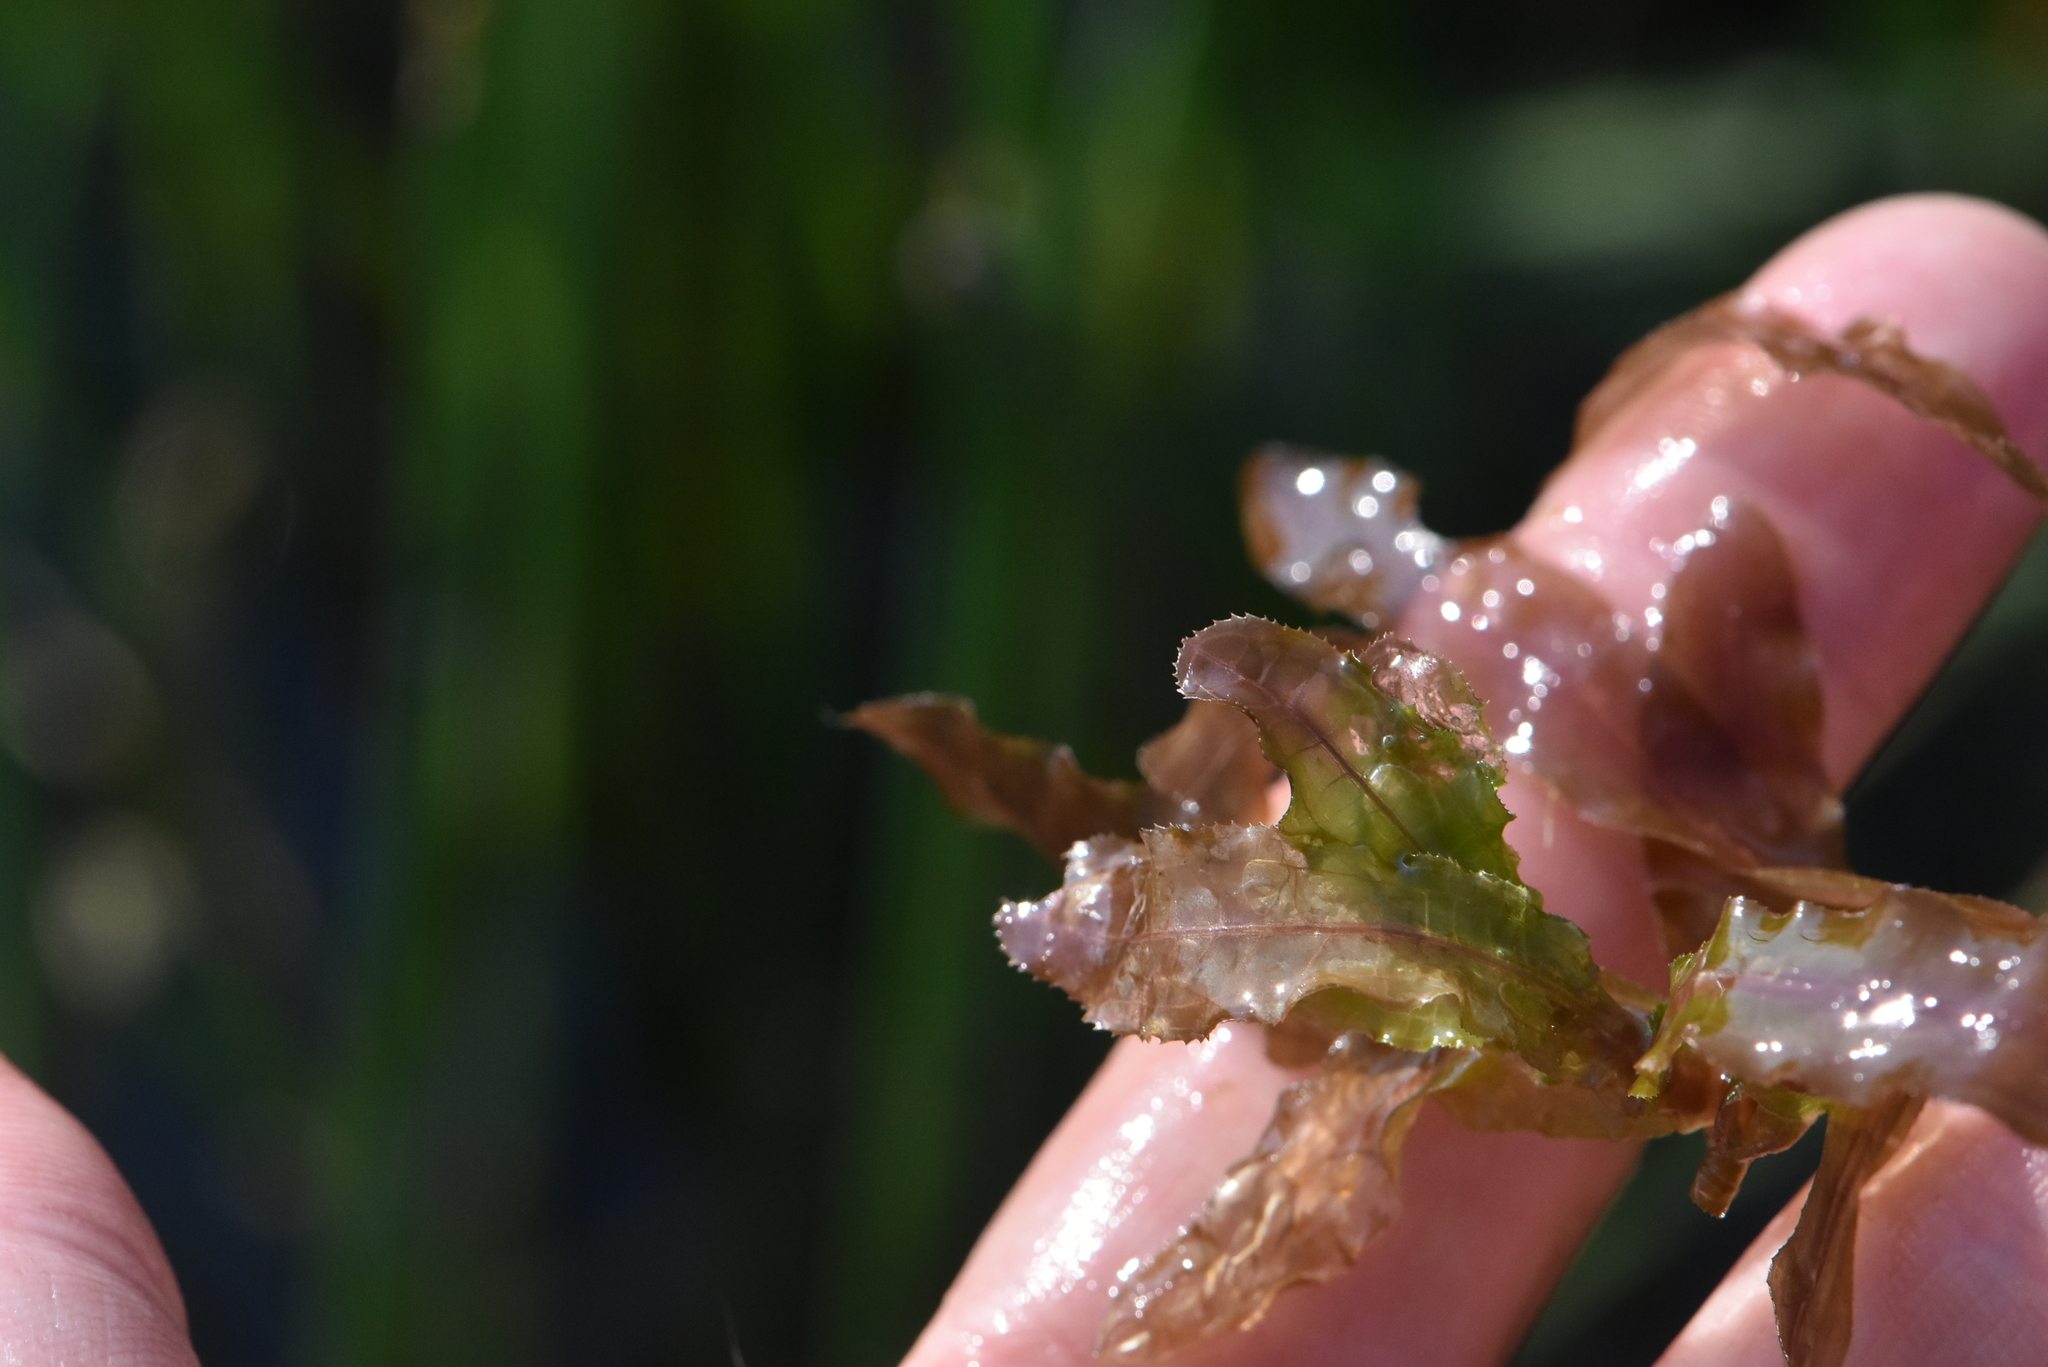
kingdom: Plantae
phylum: Tracheophyta
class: Liliopsida
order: Alismatales
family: Potamogetonaceae
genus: Potamogeton
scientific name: Potamogeton crispus
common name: Curled pondweed
